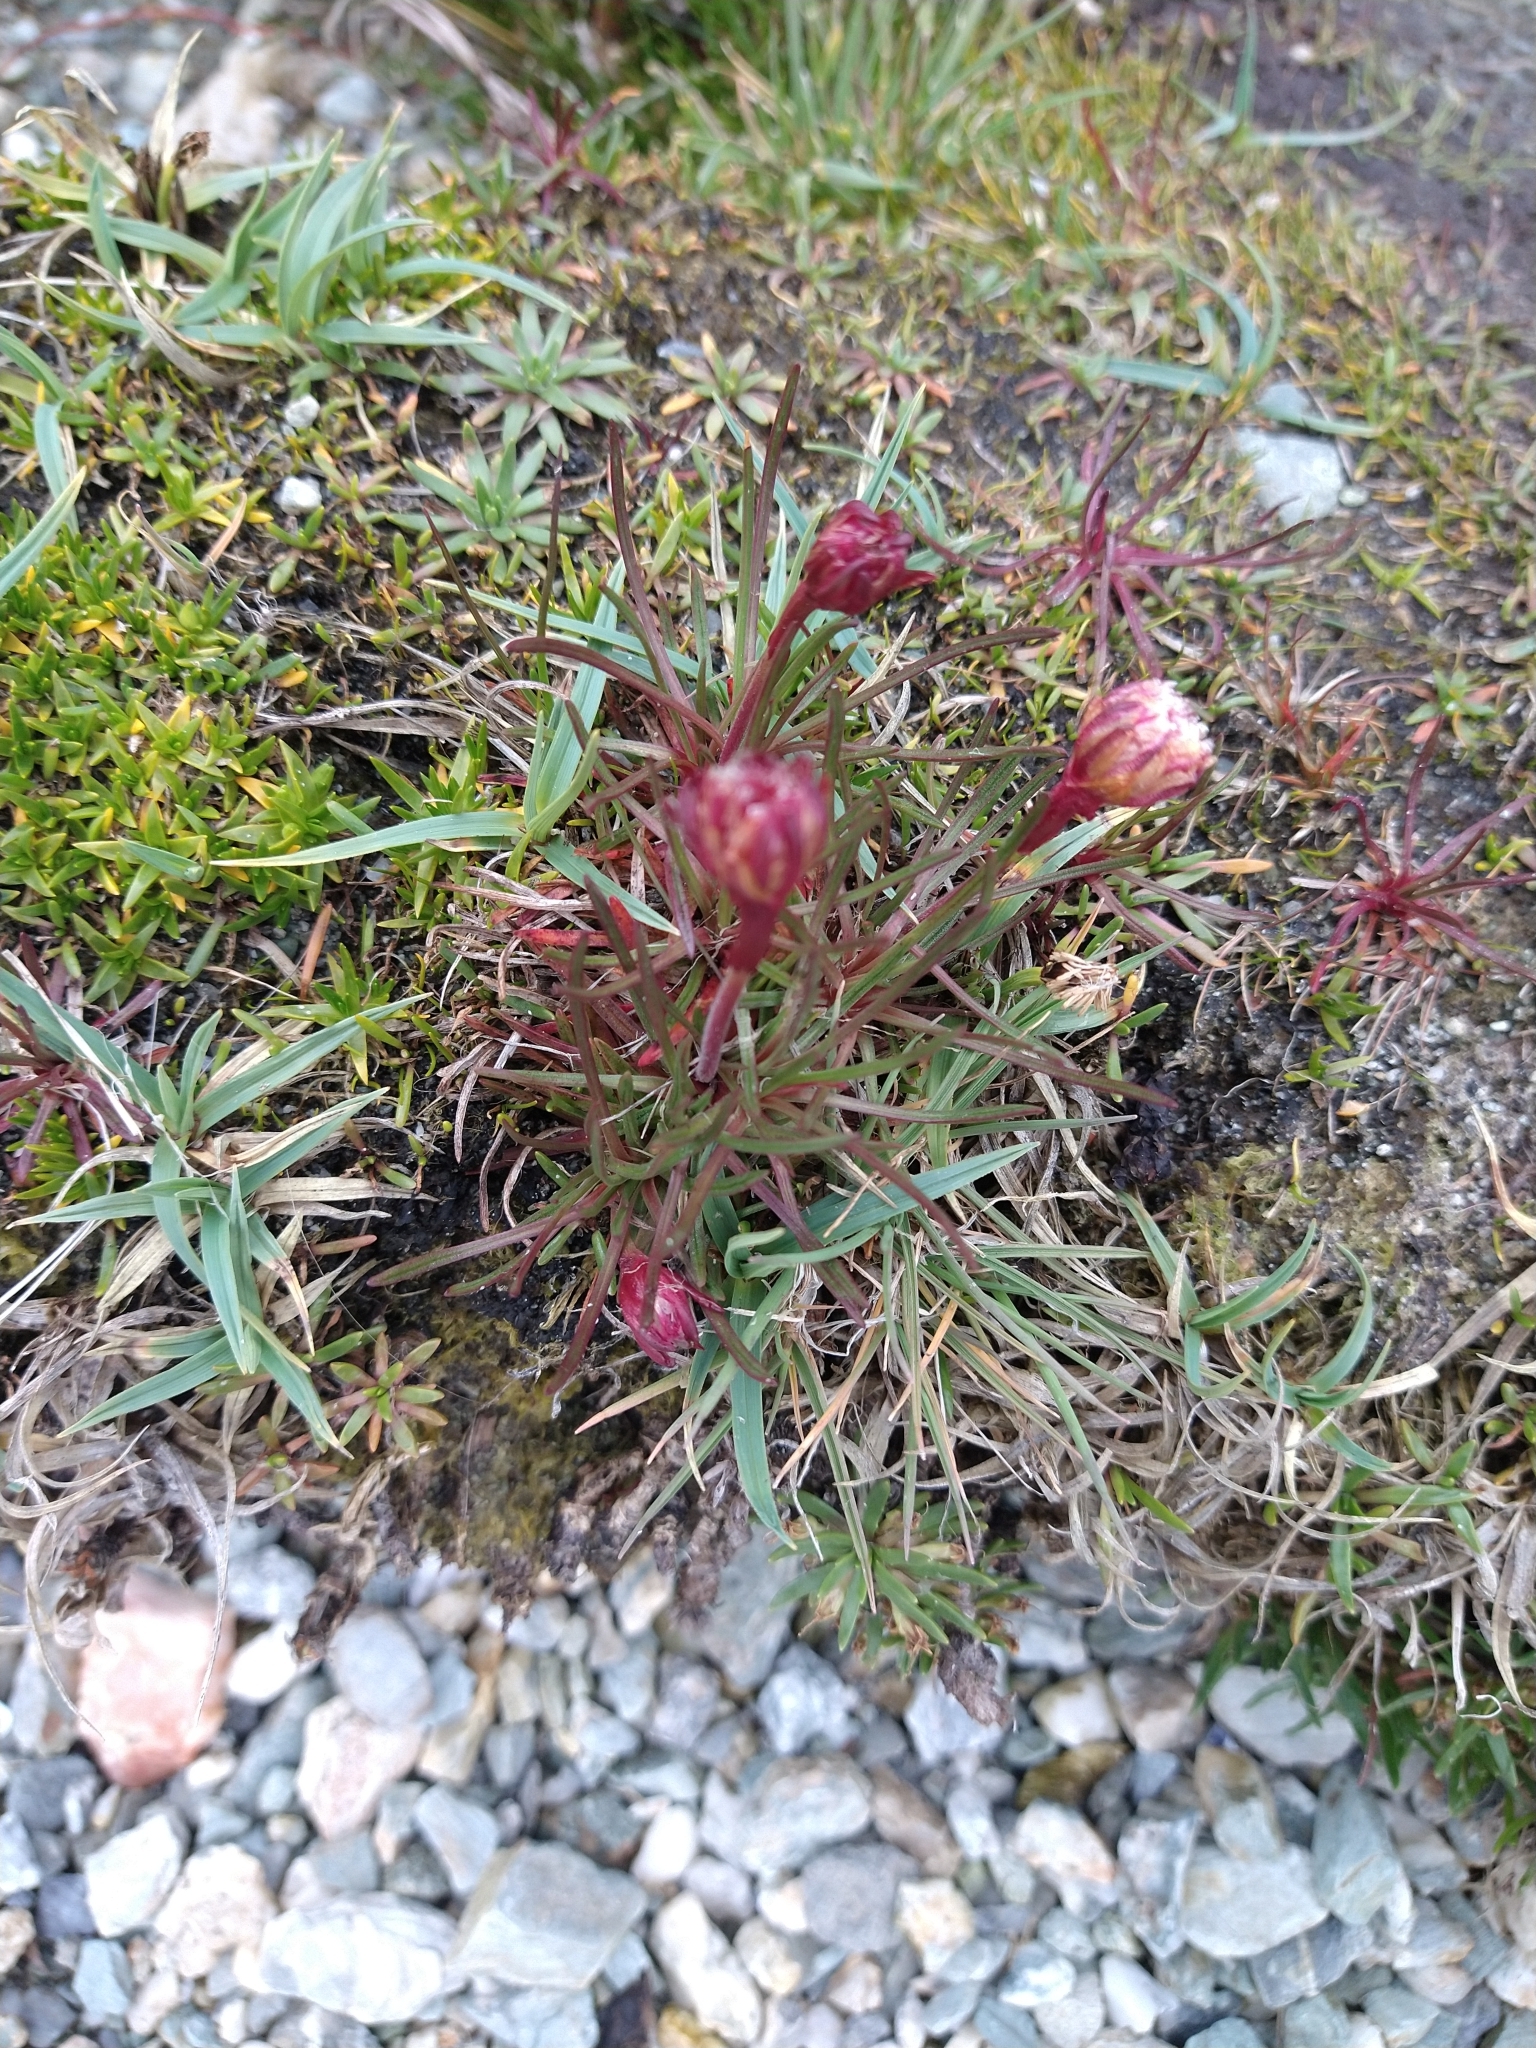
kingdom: Plantae
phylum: Tracheophyta
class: Magnoliopsida
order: Caryophyllales
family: Plumbaginaceae
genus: Armeria
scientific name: Armeria curvifolia
